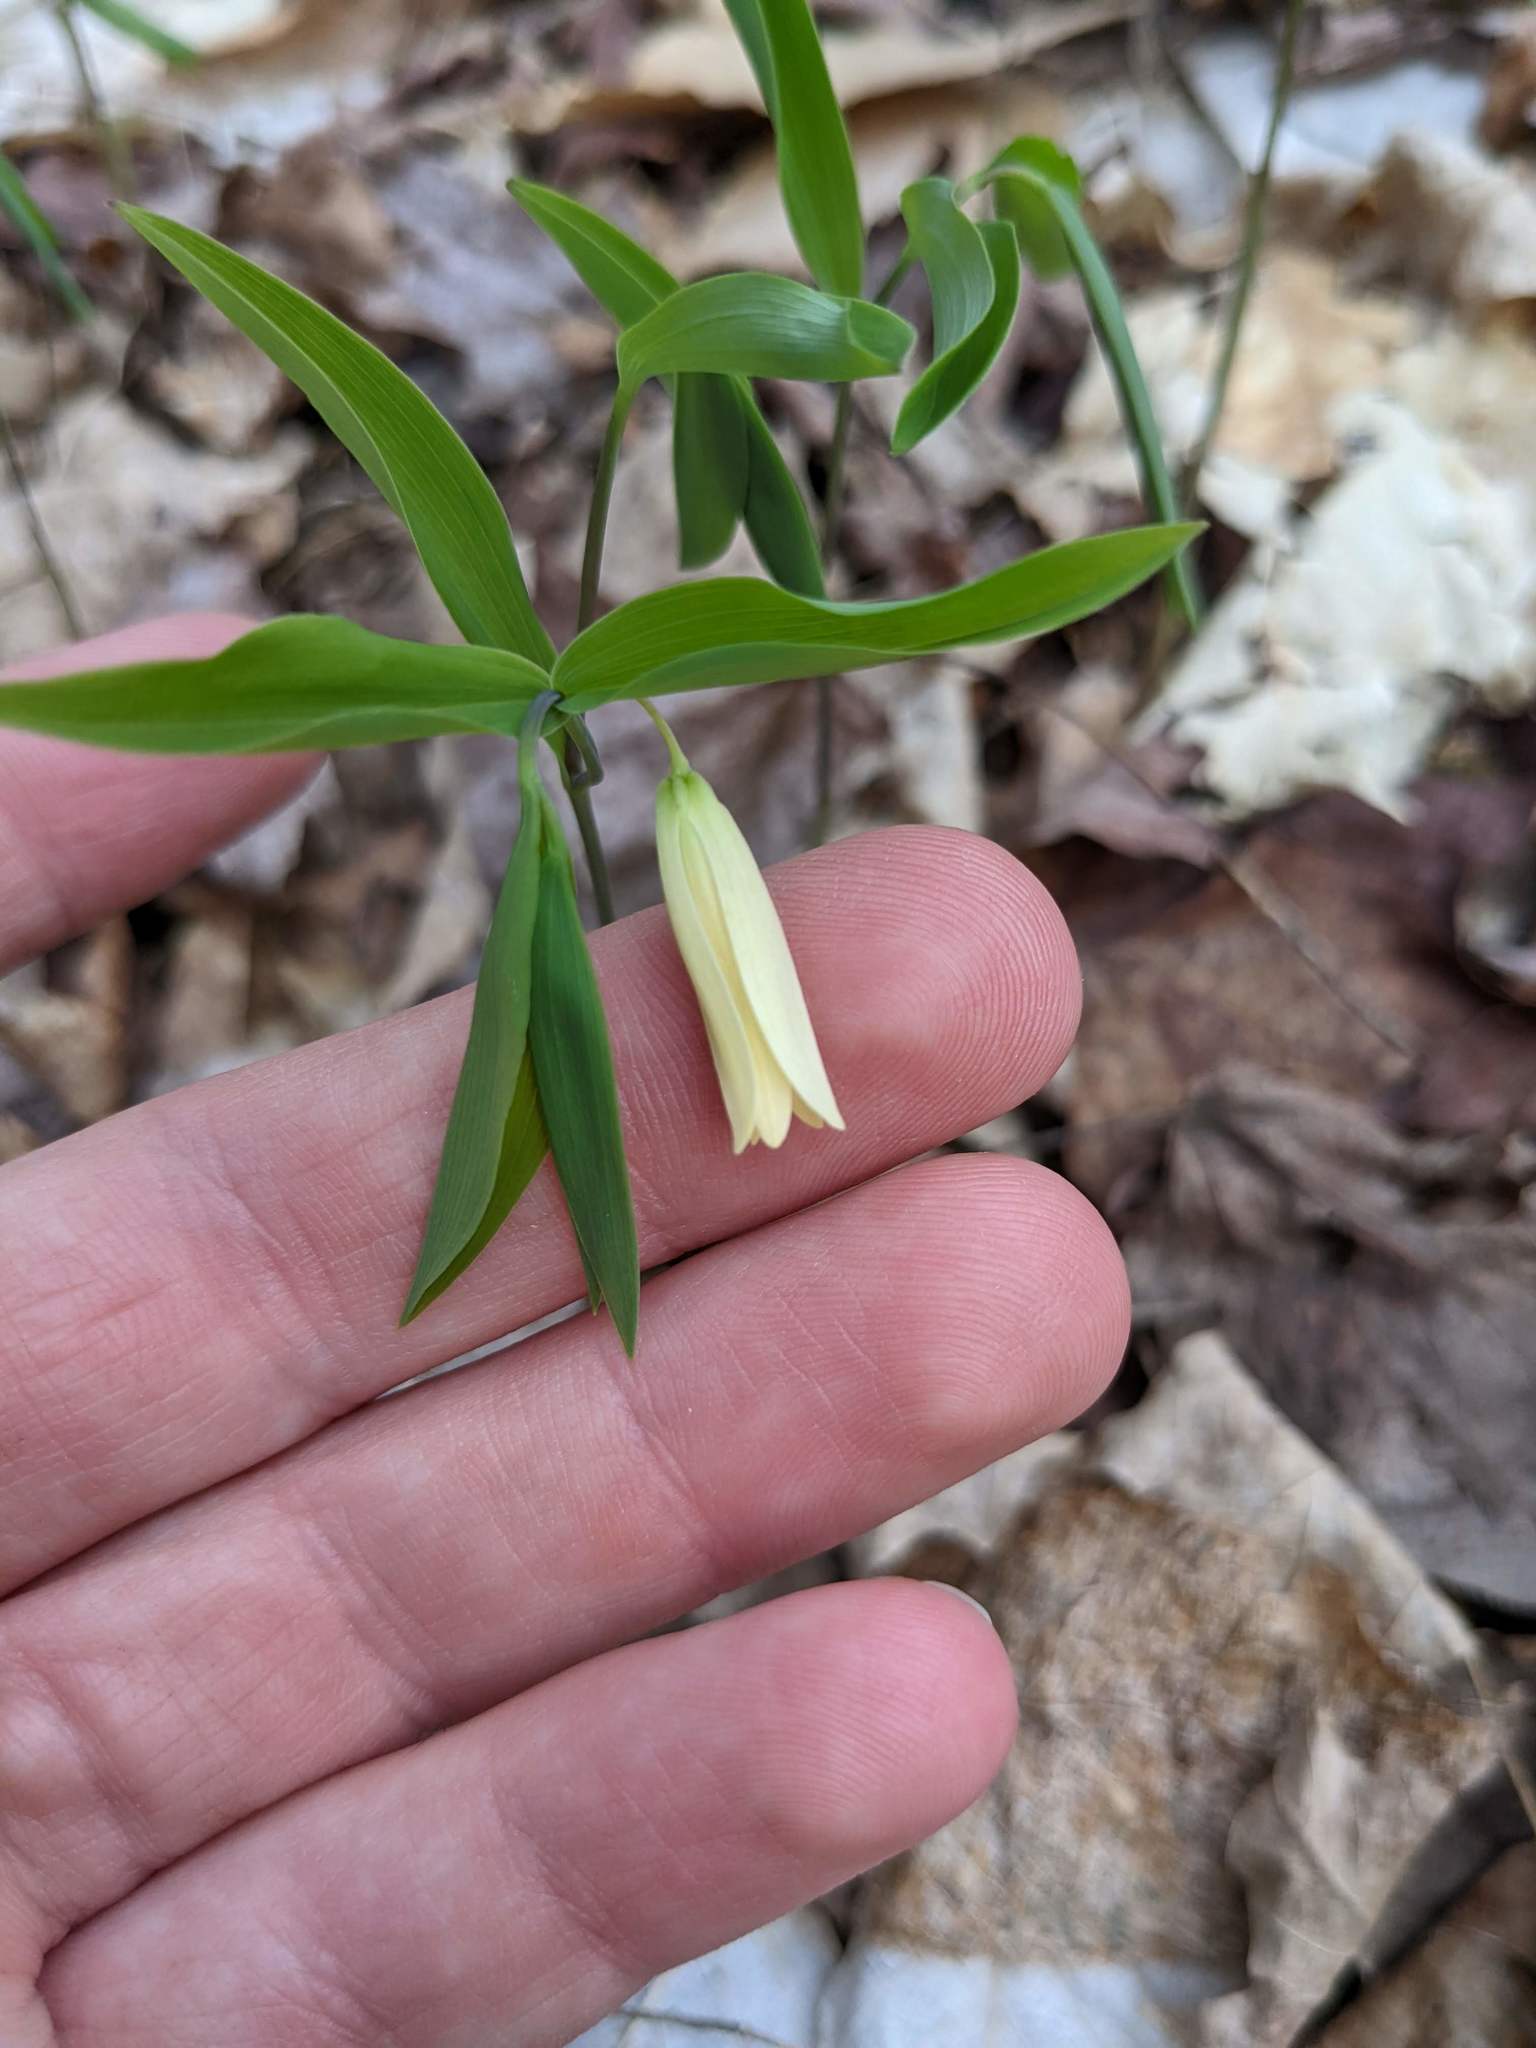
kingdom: Plantae
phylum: Tracheophyta
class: Liliopsida
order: Liliales
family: Colchicaceae
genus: Uvularia
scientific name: Uvularia sessilifolia
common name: Straw-lily
